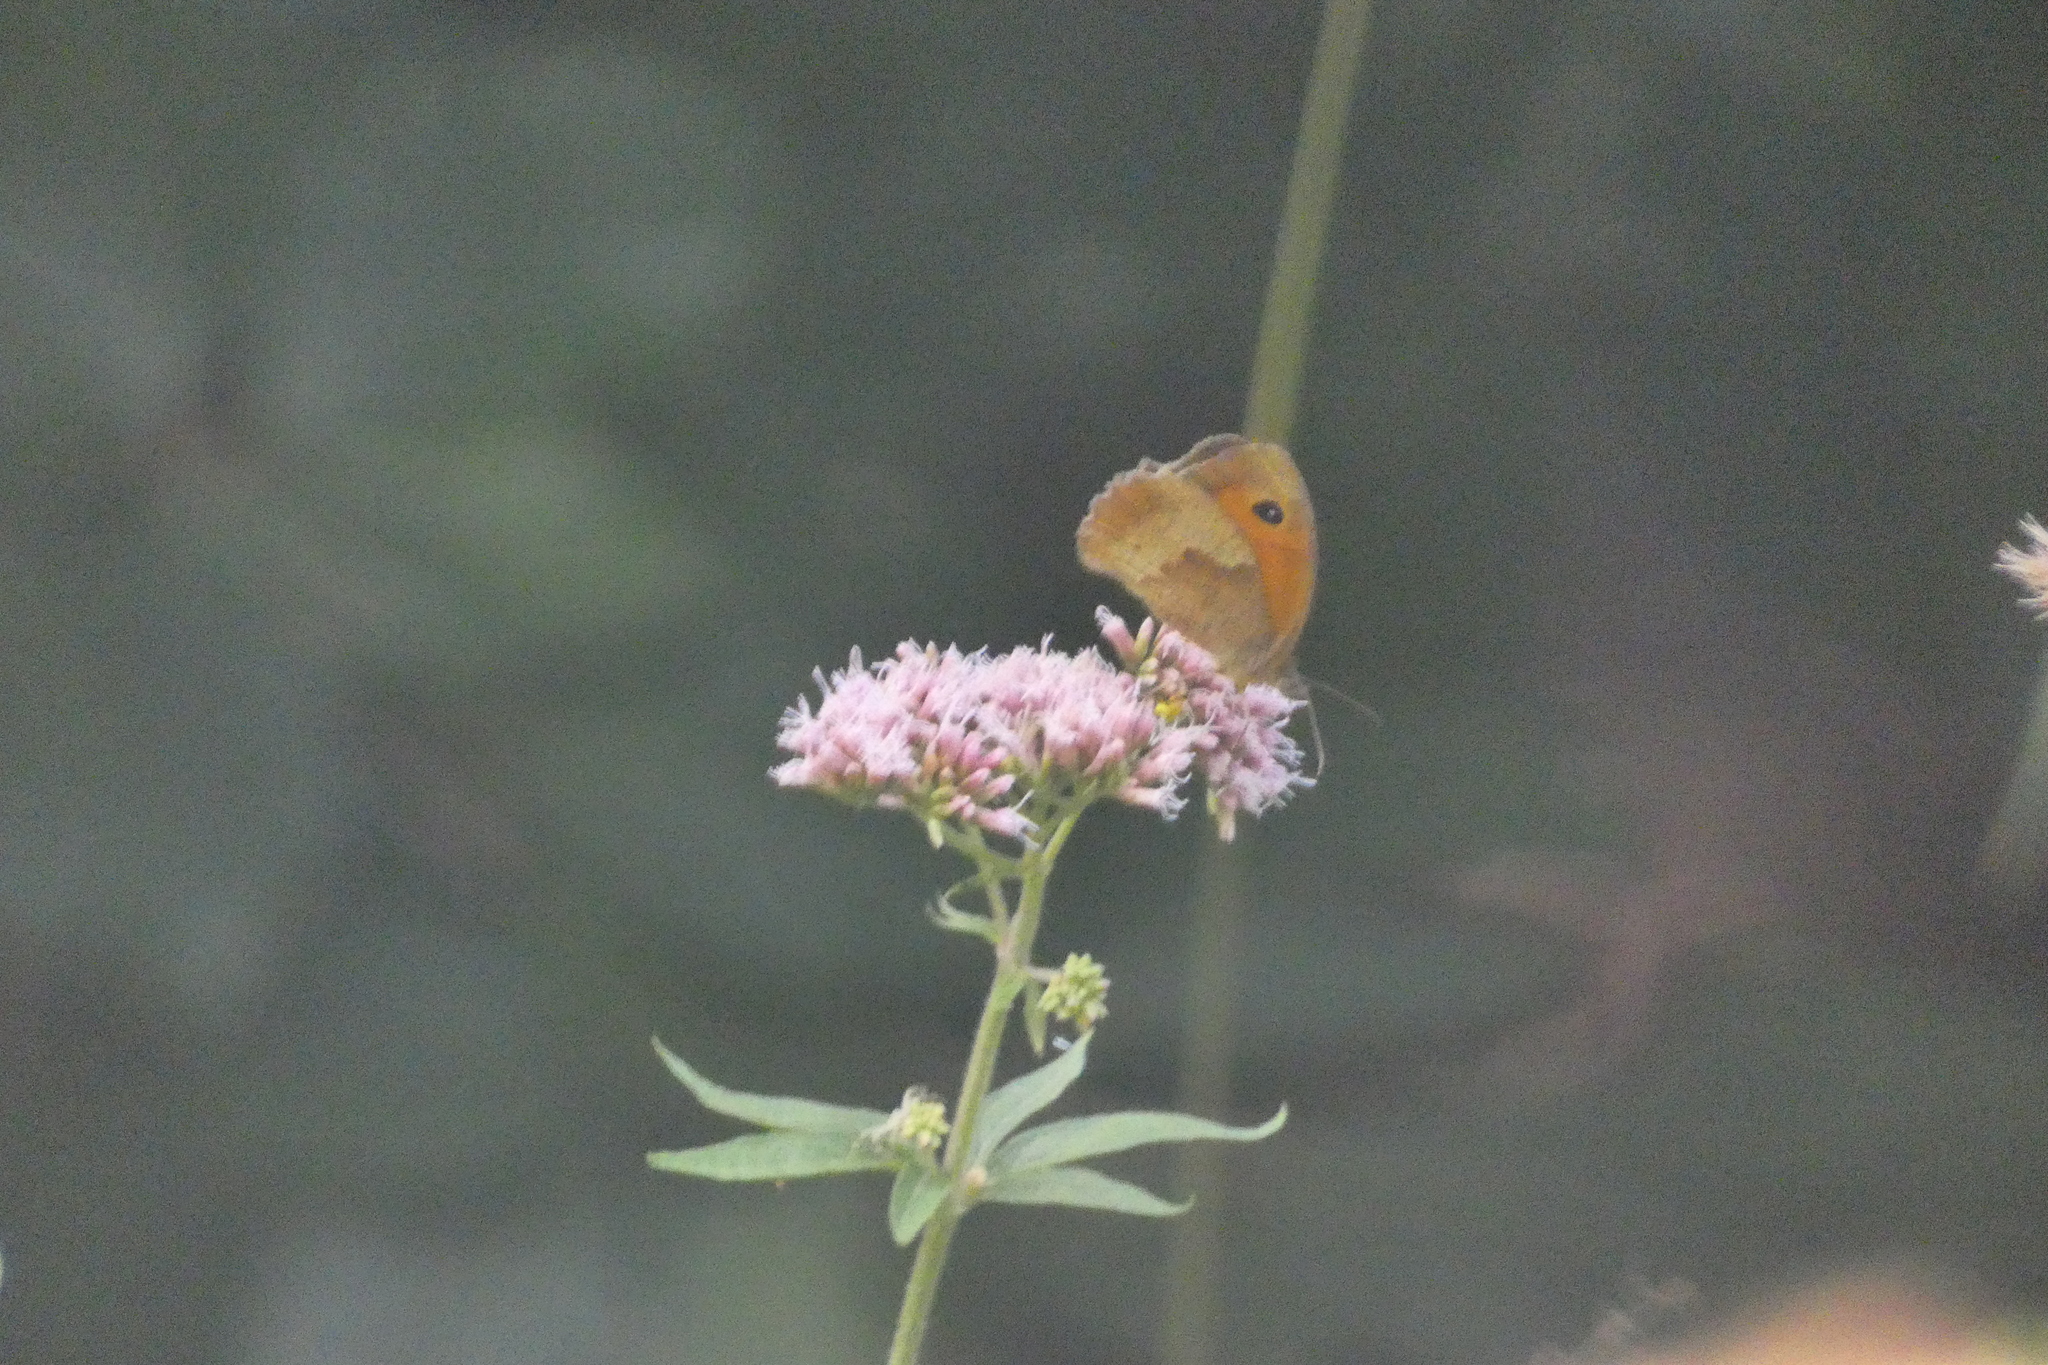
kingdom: Animalia
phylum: Arthropoda
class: Insecta
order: Lepidoptera
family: Nymphalidae
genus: Maniola
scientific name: Maniola jurtina
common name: Meadow brown
